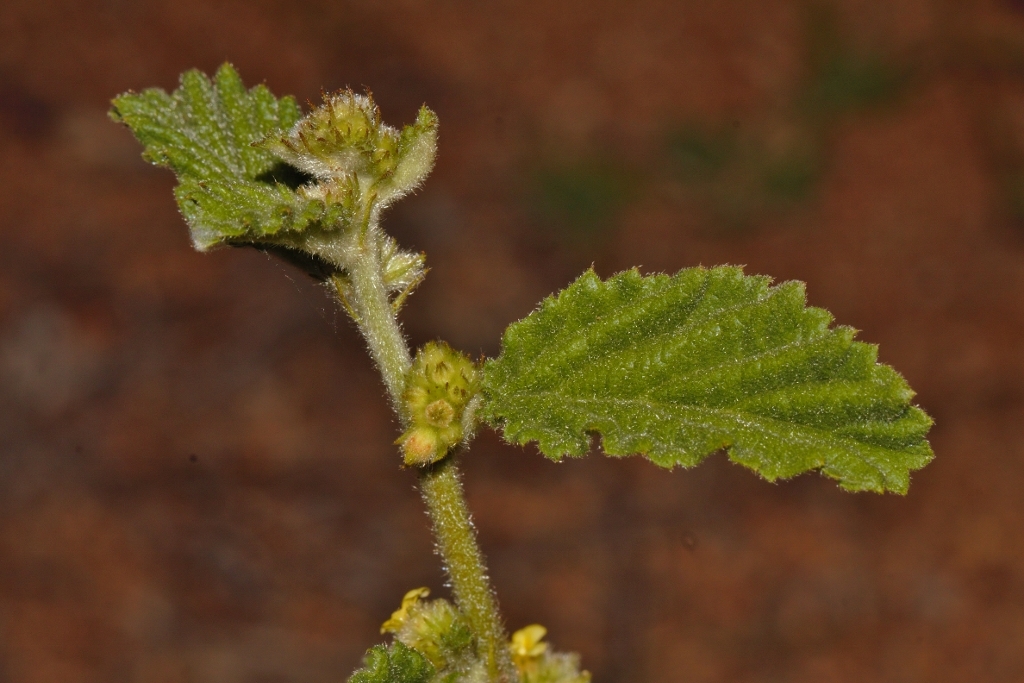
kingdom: Plantae
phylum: Tracheophyta
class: Magnoliopsida
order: Malvales
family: Malvaceae
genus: Waltheria
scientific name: Waltheria indica
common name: Leather-coat
